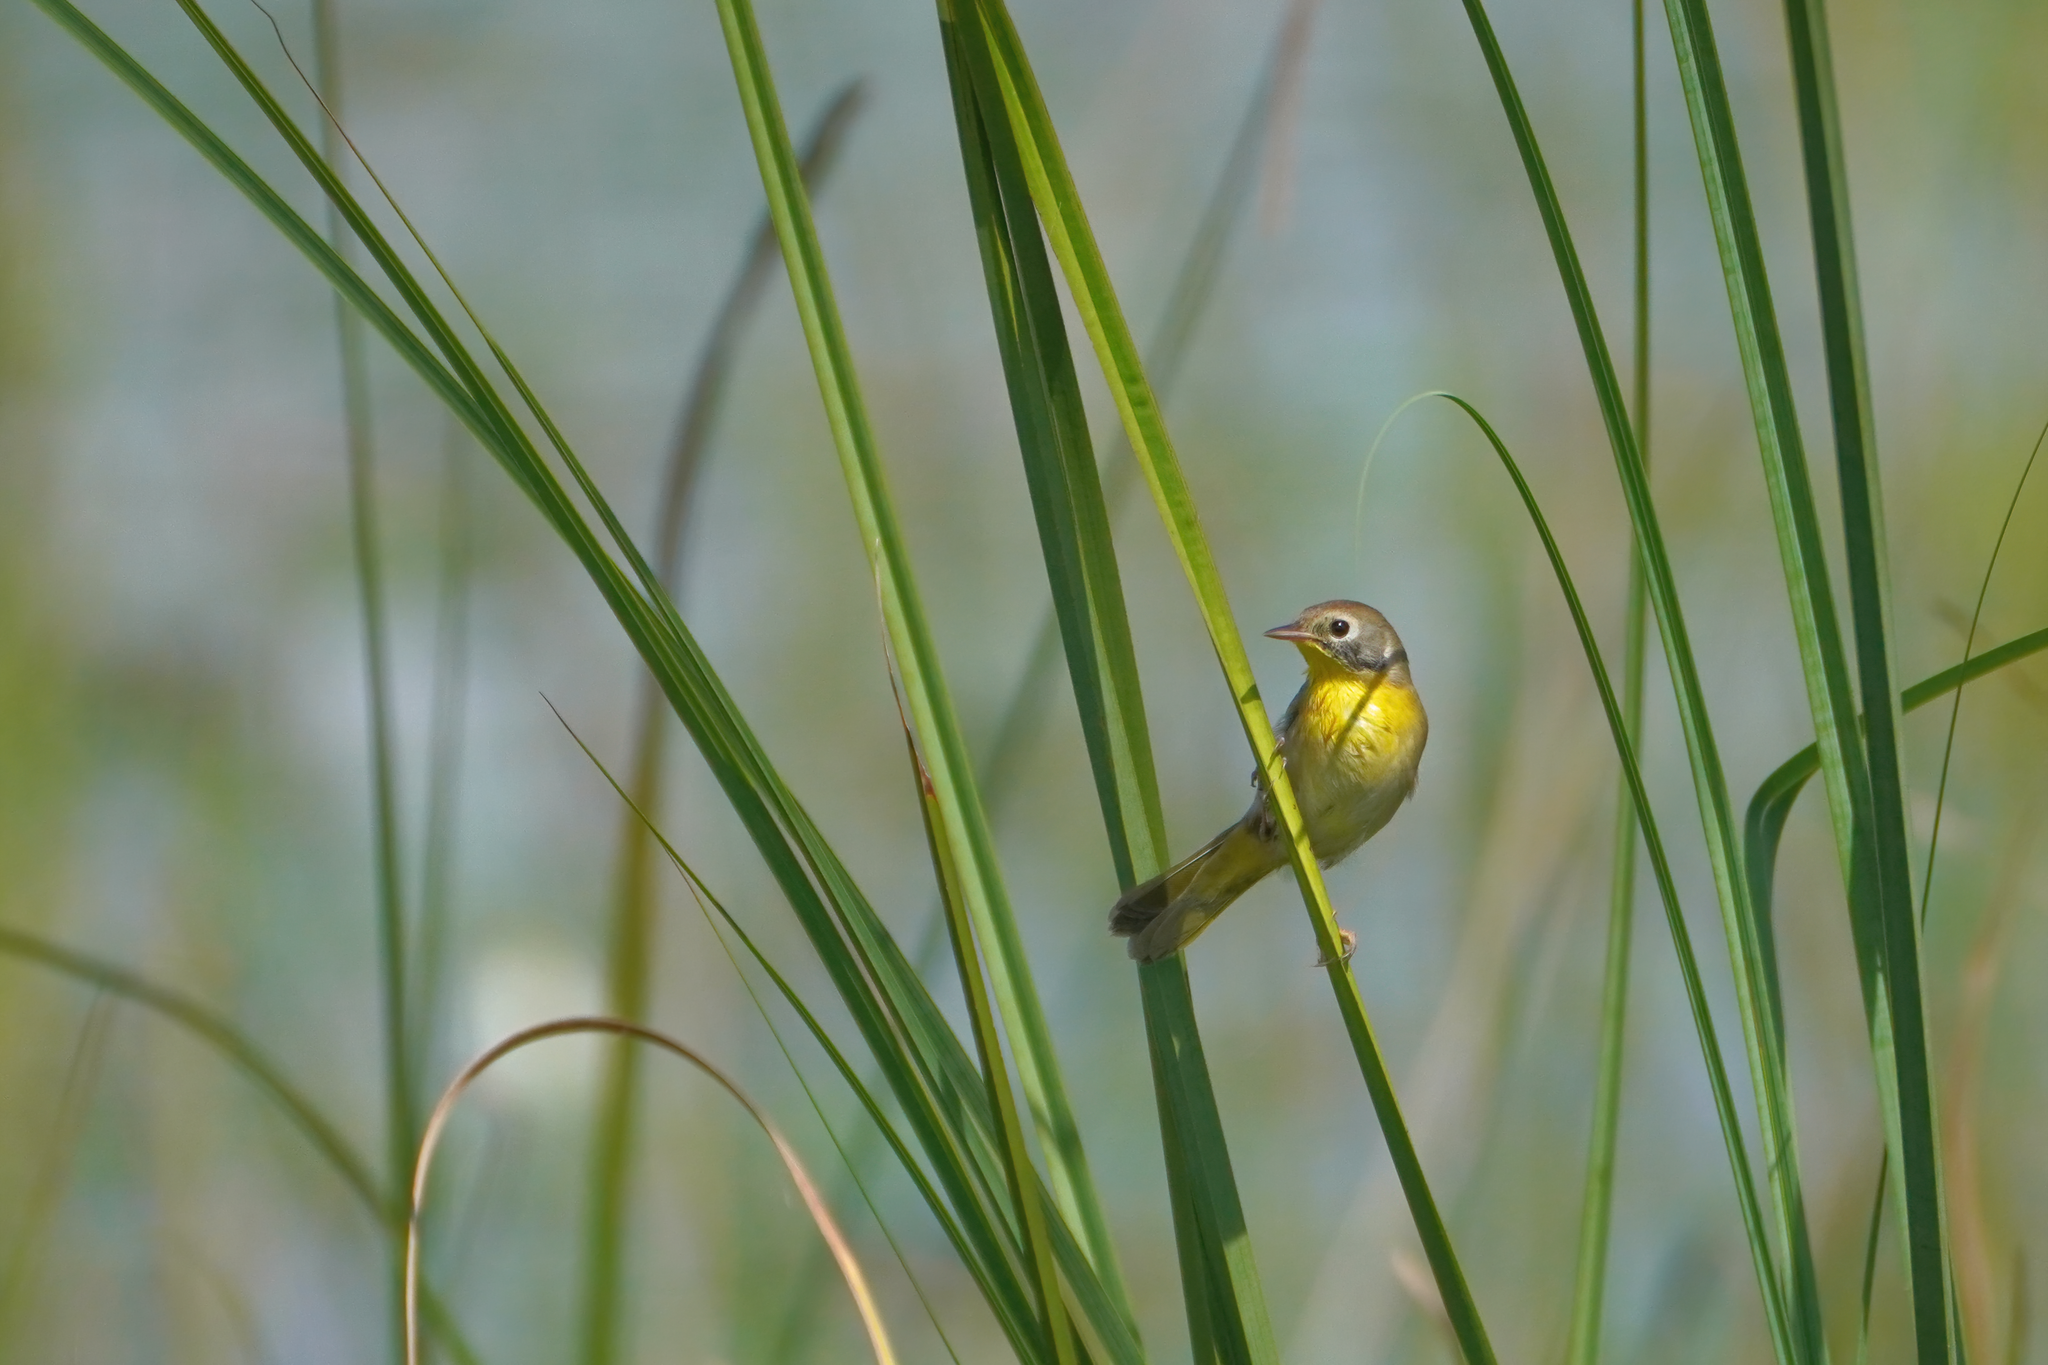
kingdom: Animalia
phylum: Chordata
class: Aves
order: Passeriformes
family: Parulidae
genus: Geothlypis
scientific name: Geothlypis trichas
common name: Common yellowthroat
